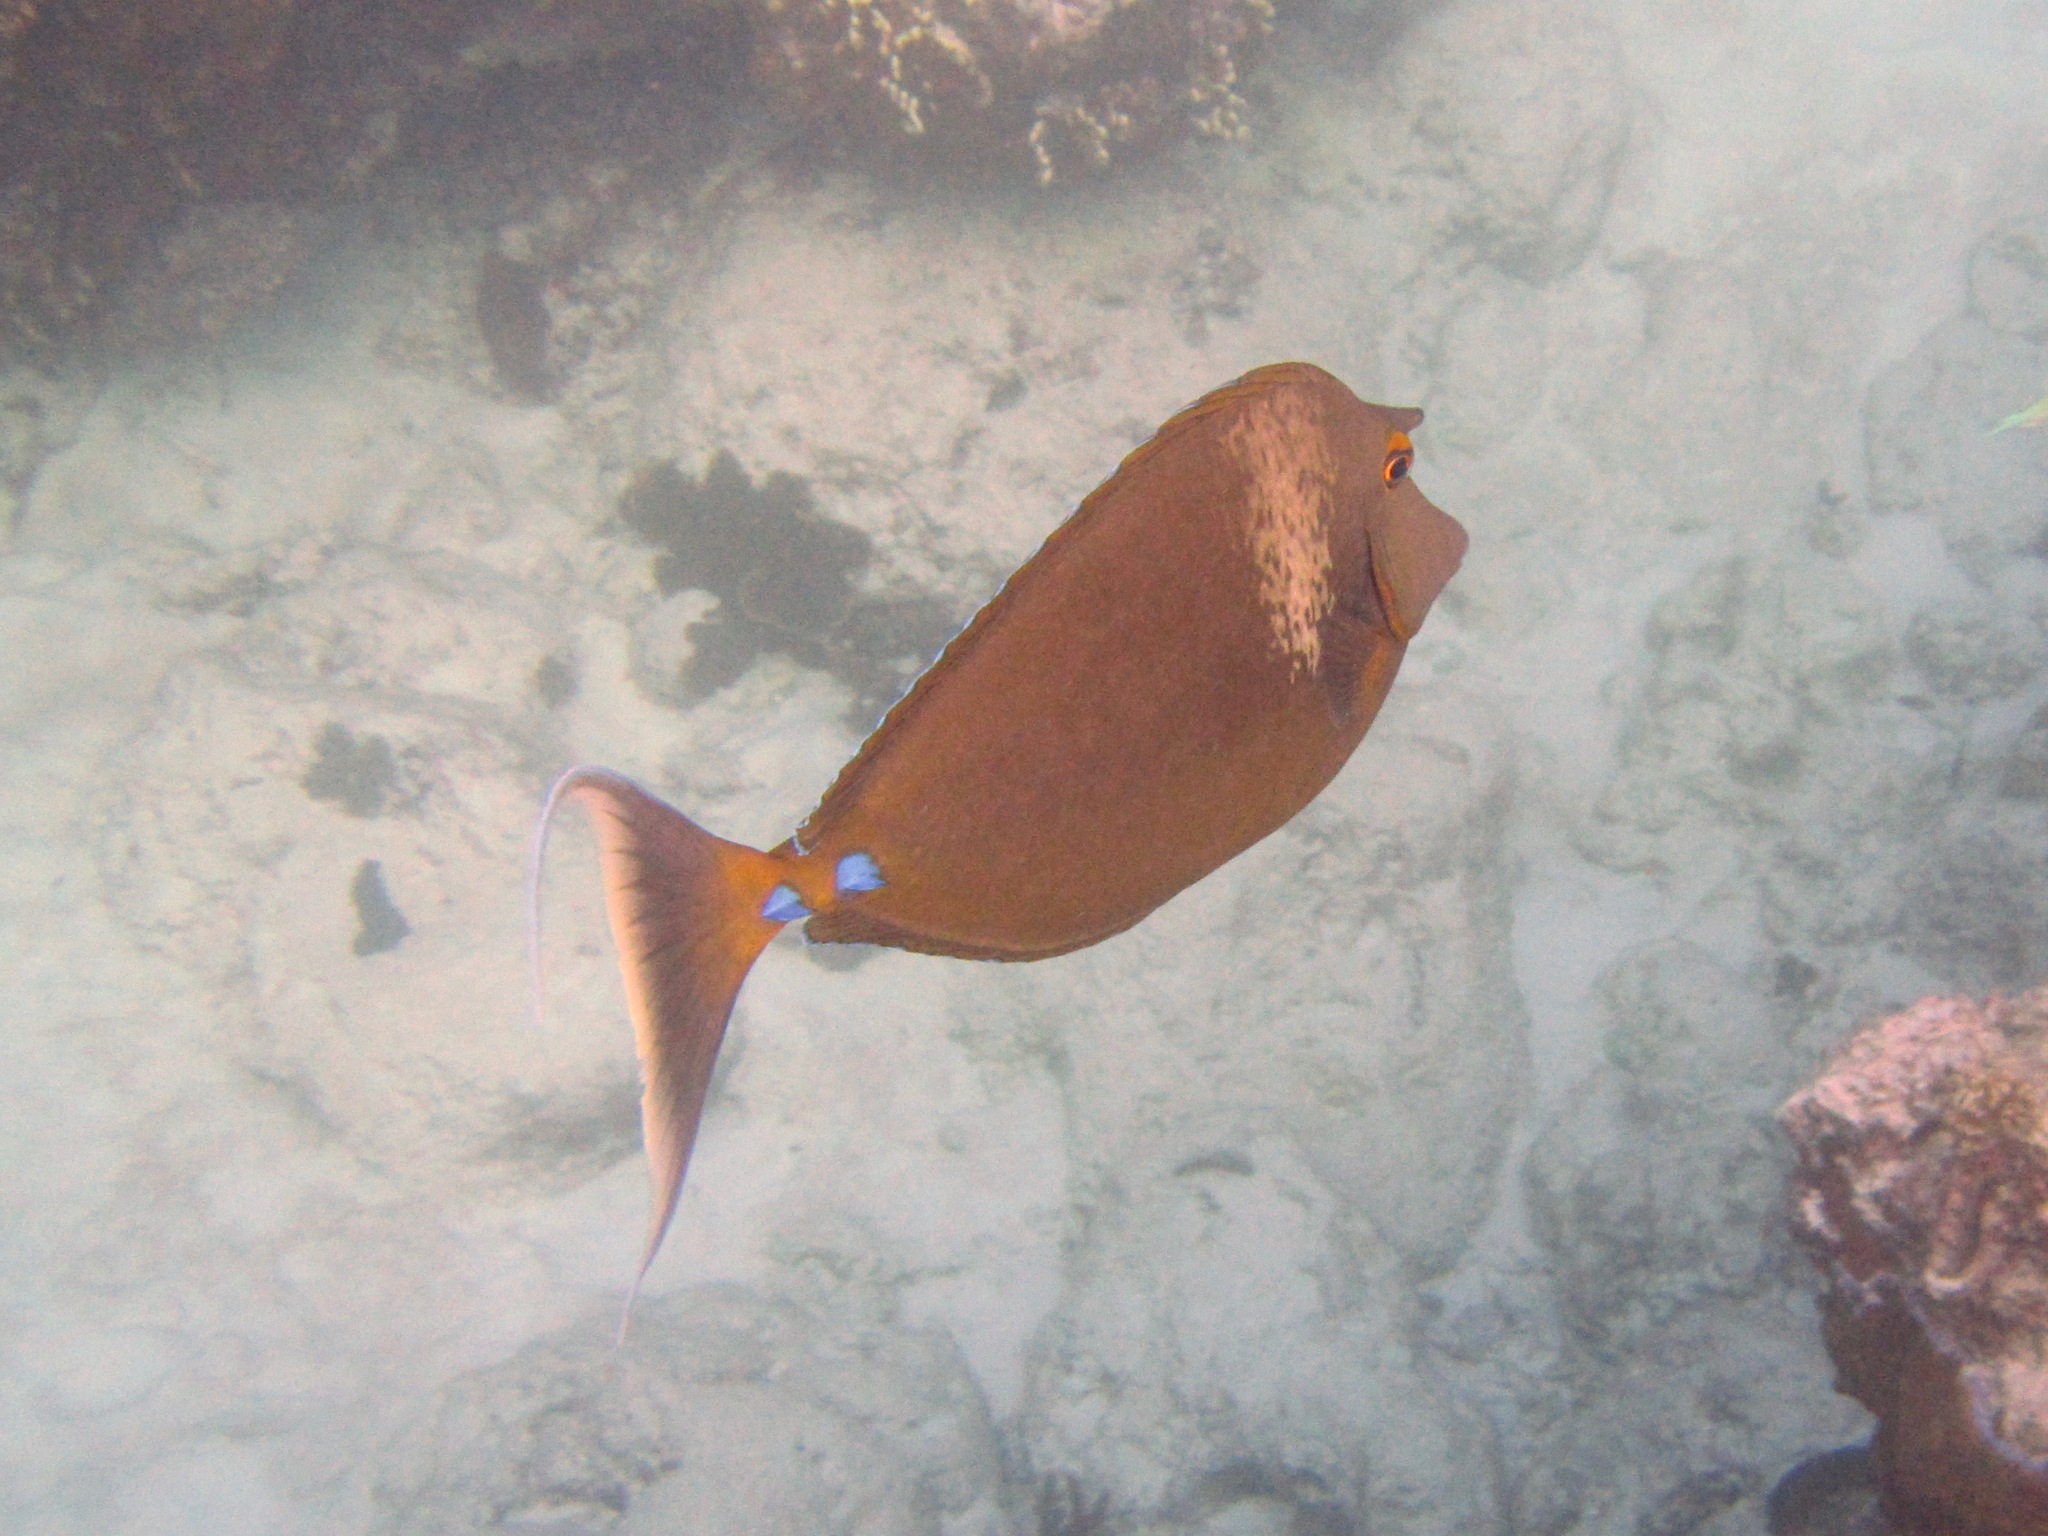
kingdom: Animalia
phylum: Chordata
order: Perciformes
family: Acanthuridae
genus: Naso
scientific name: Naso unicornis
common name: Bluespine unicornfish
